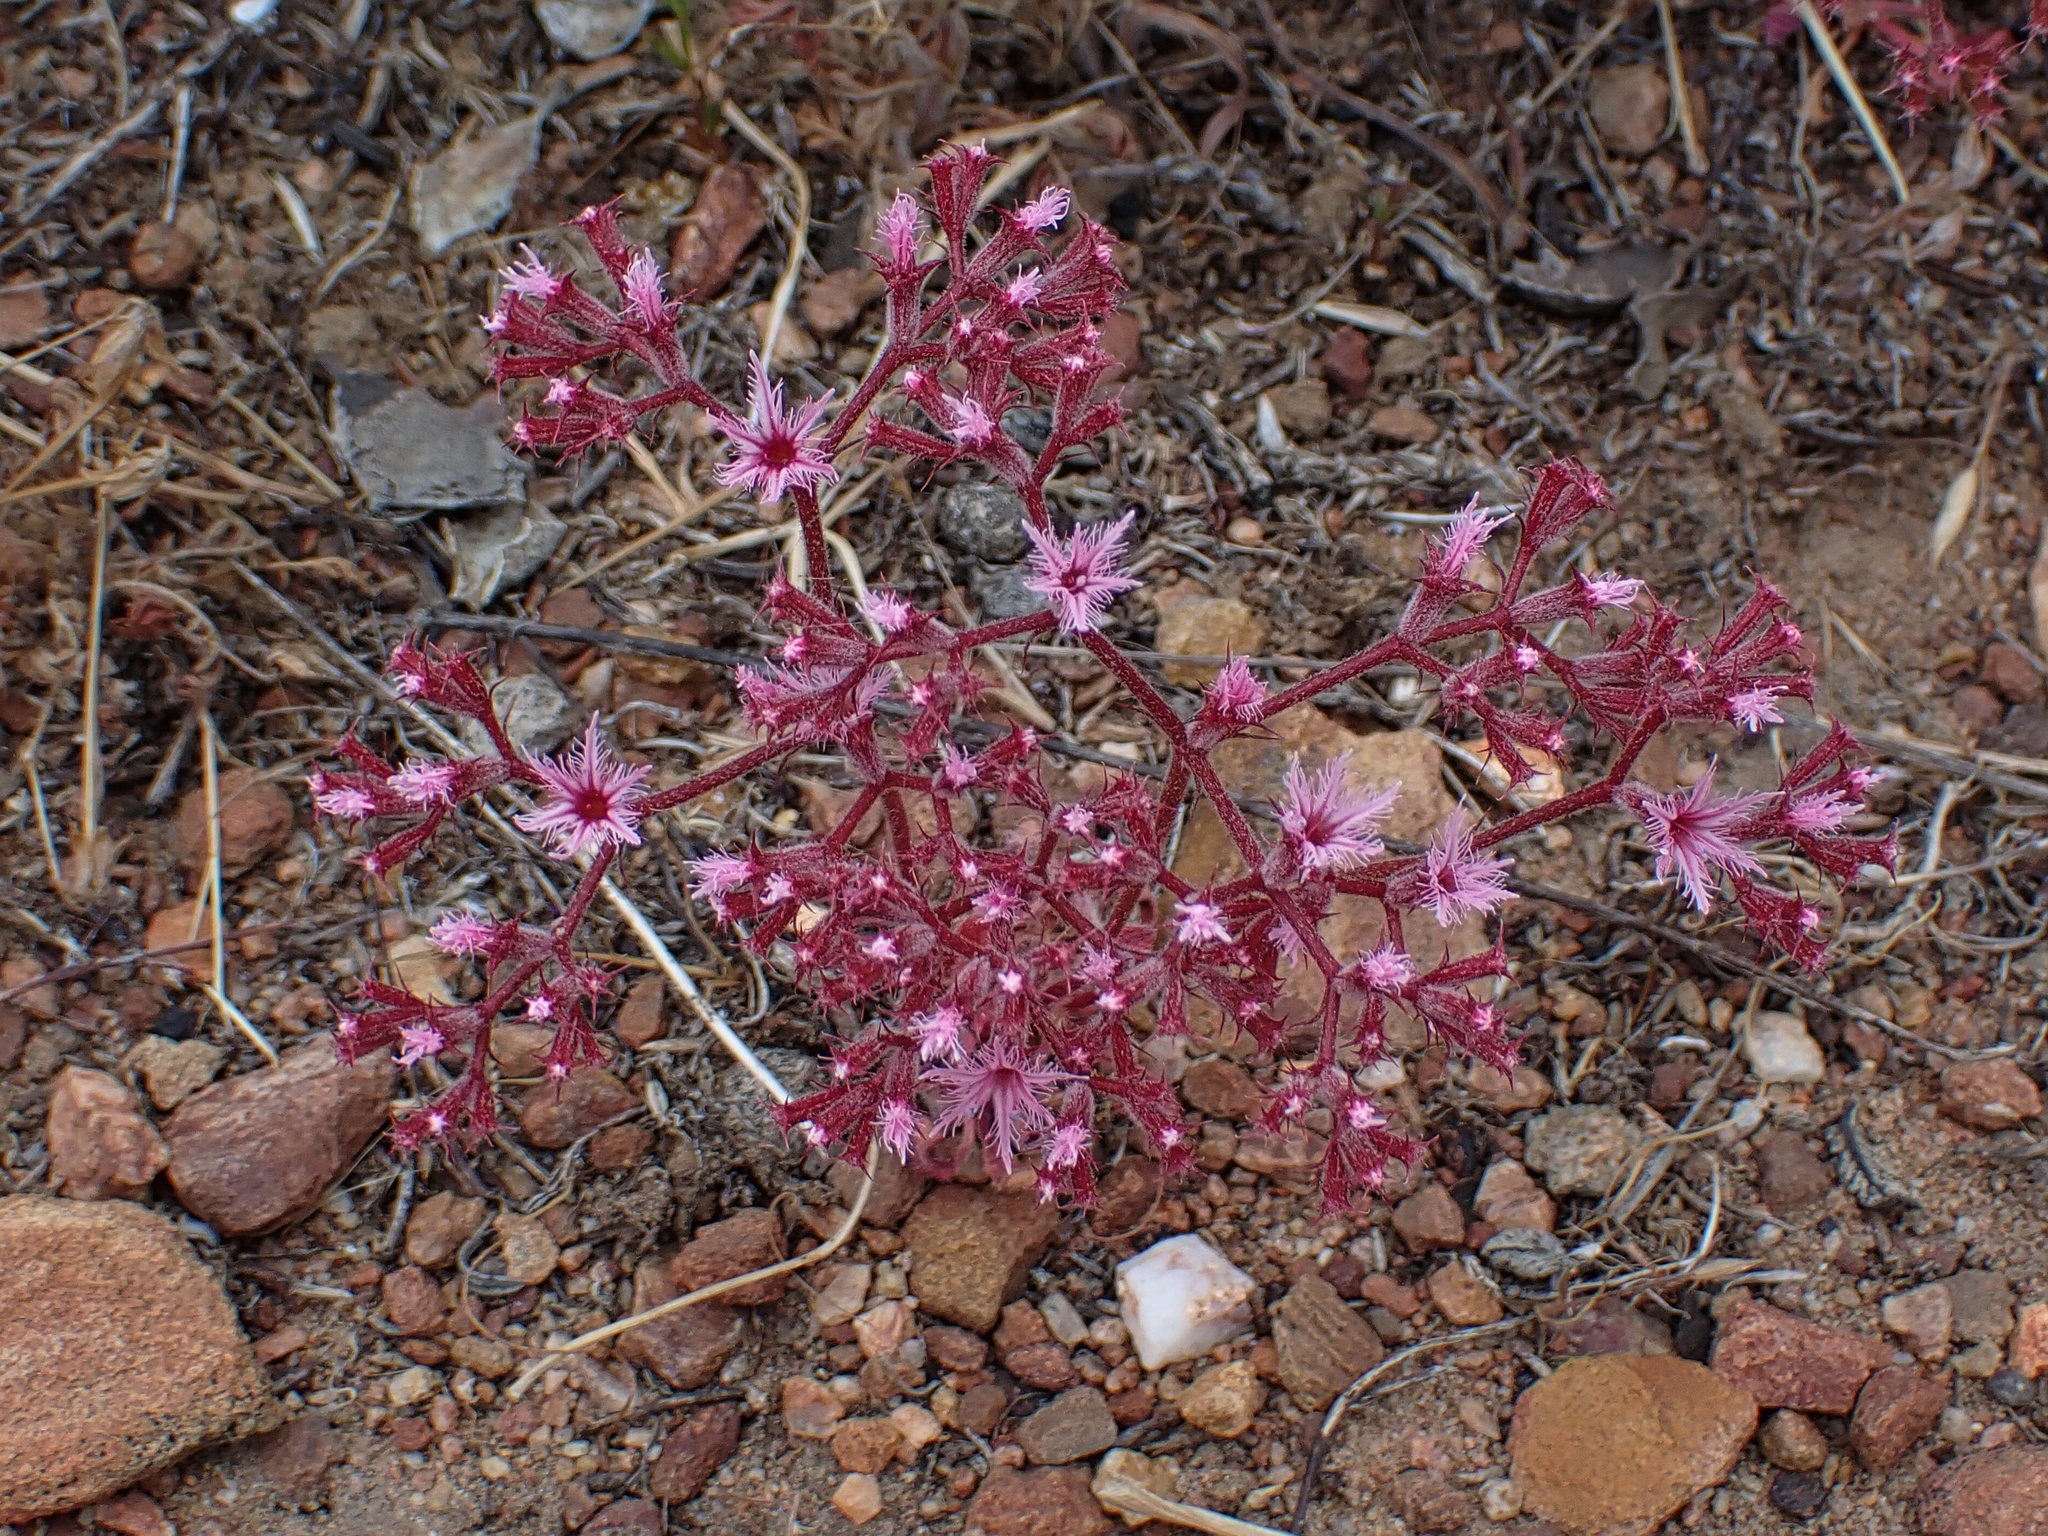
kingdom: Plantae
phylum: Tracheophyta
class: Magnoliopsida
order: Caryophyllales
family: Polygonaceae
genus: Chorizanthe
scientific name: Chorizanthe fimbriata
